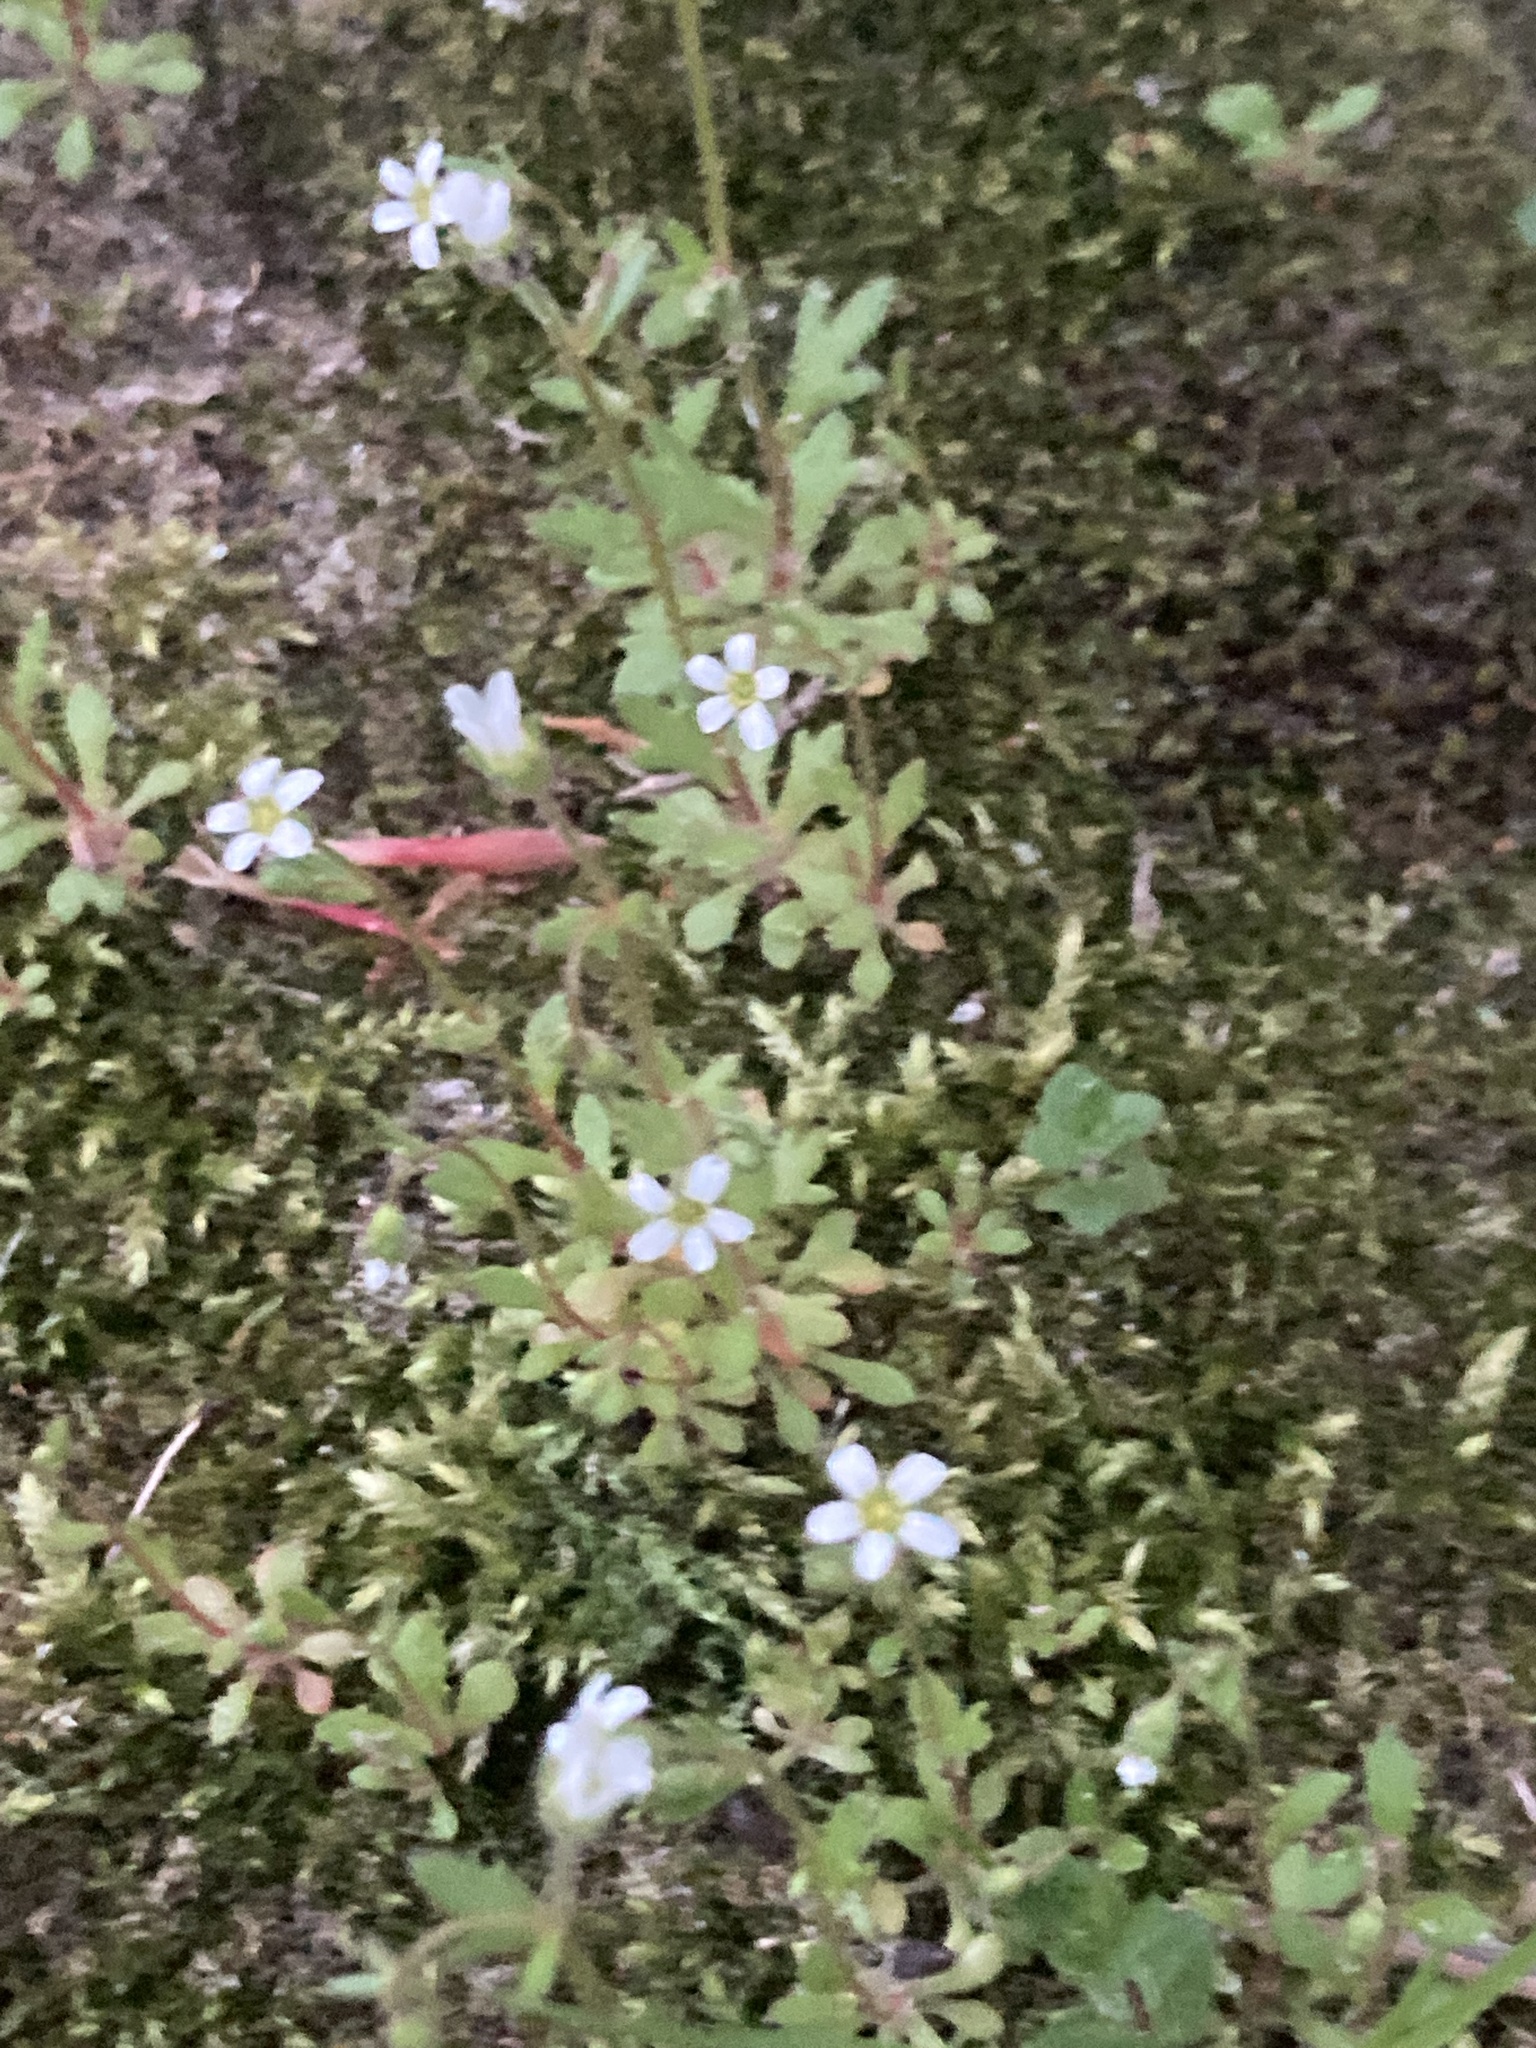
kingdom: Plantae
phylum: Tracheophyta
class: Magnoliopsida
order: Saxifragales
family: Saxifragaceae
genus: Saxifraga
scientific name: Saxifraga tridactylites
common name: Rue-leaved saxifrage
